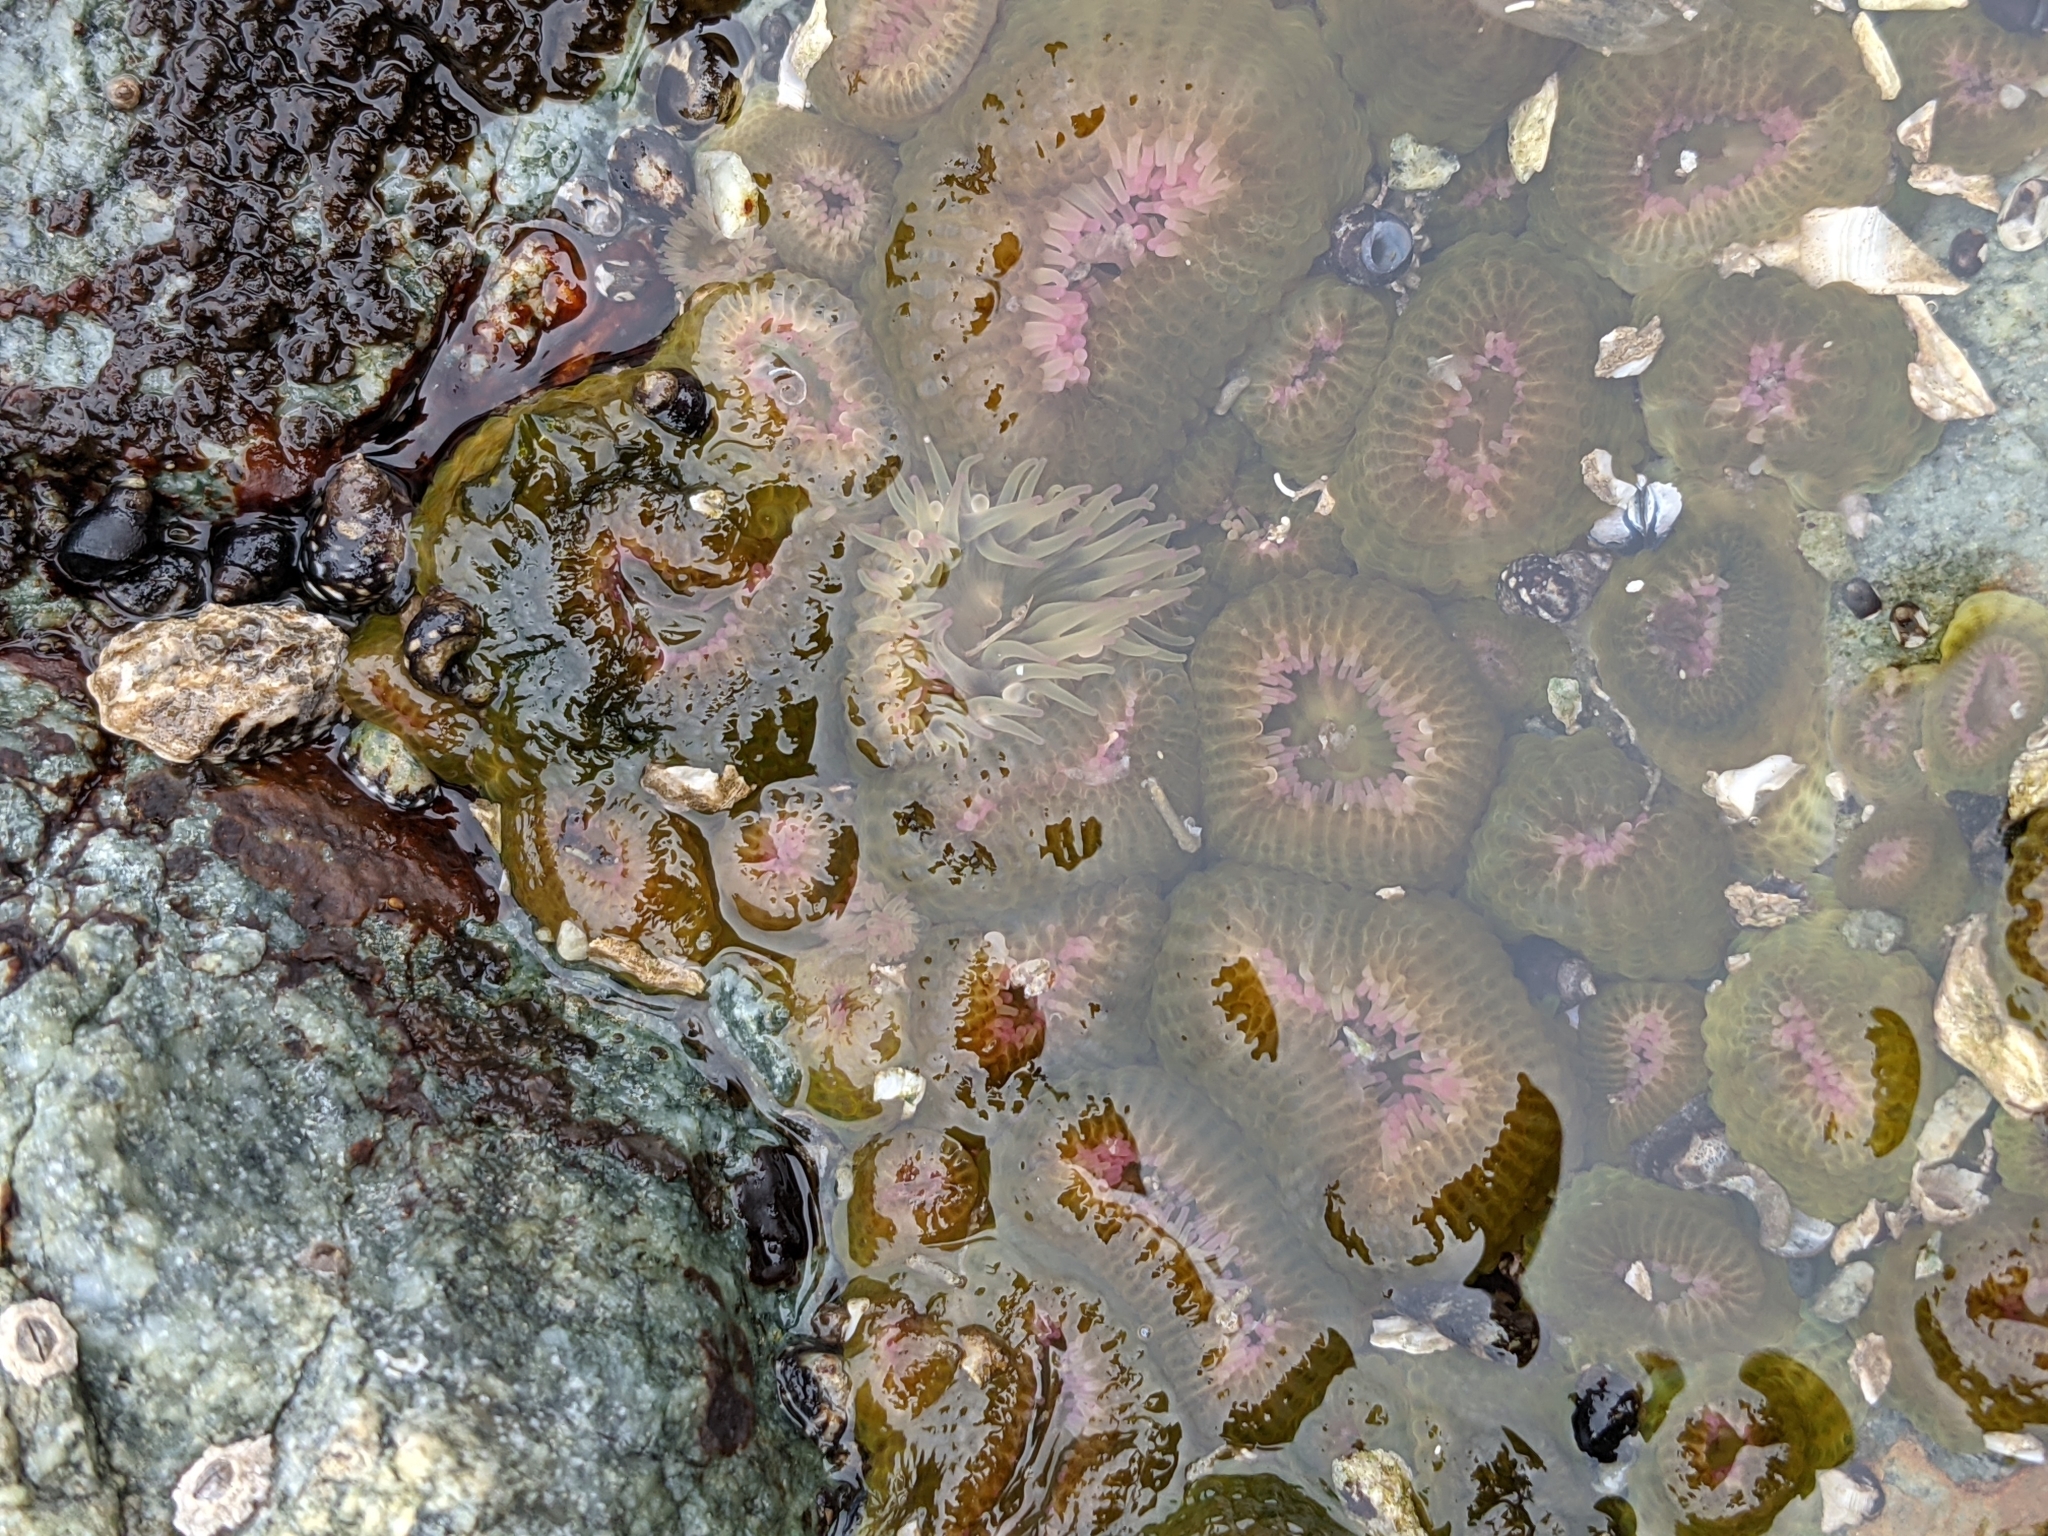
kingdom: Animalia
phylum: Cnidaria
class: Anthozoa
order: Actiniaria
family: Actiniidae
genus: Anthopleura
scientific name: Anthopleura elegantissima
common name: Clonal anemone
